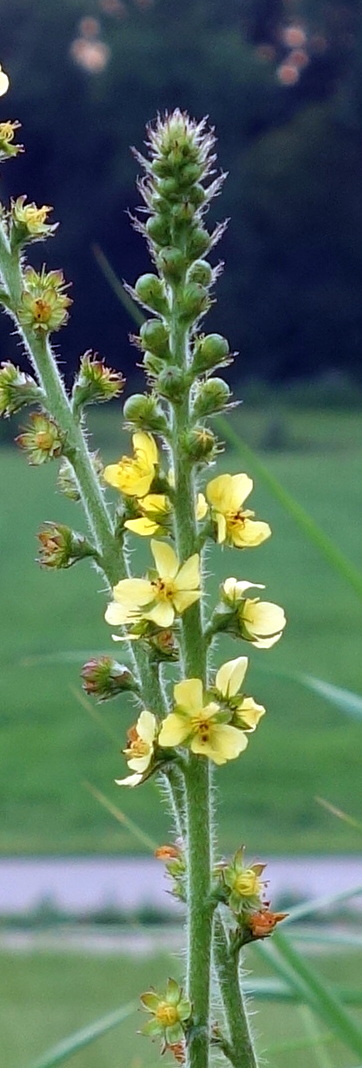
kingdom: Plantae
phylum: Tracheophyta
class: Magnoliopsida
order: Rosales
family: Rosaceae
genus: Agrimonia
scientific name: Agrimonia eupatoria
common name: Agrimony
